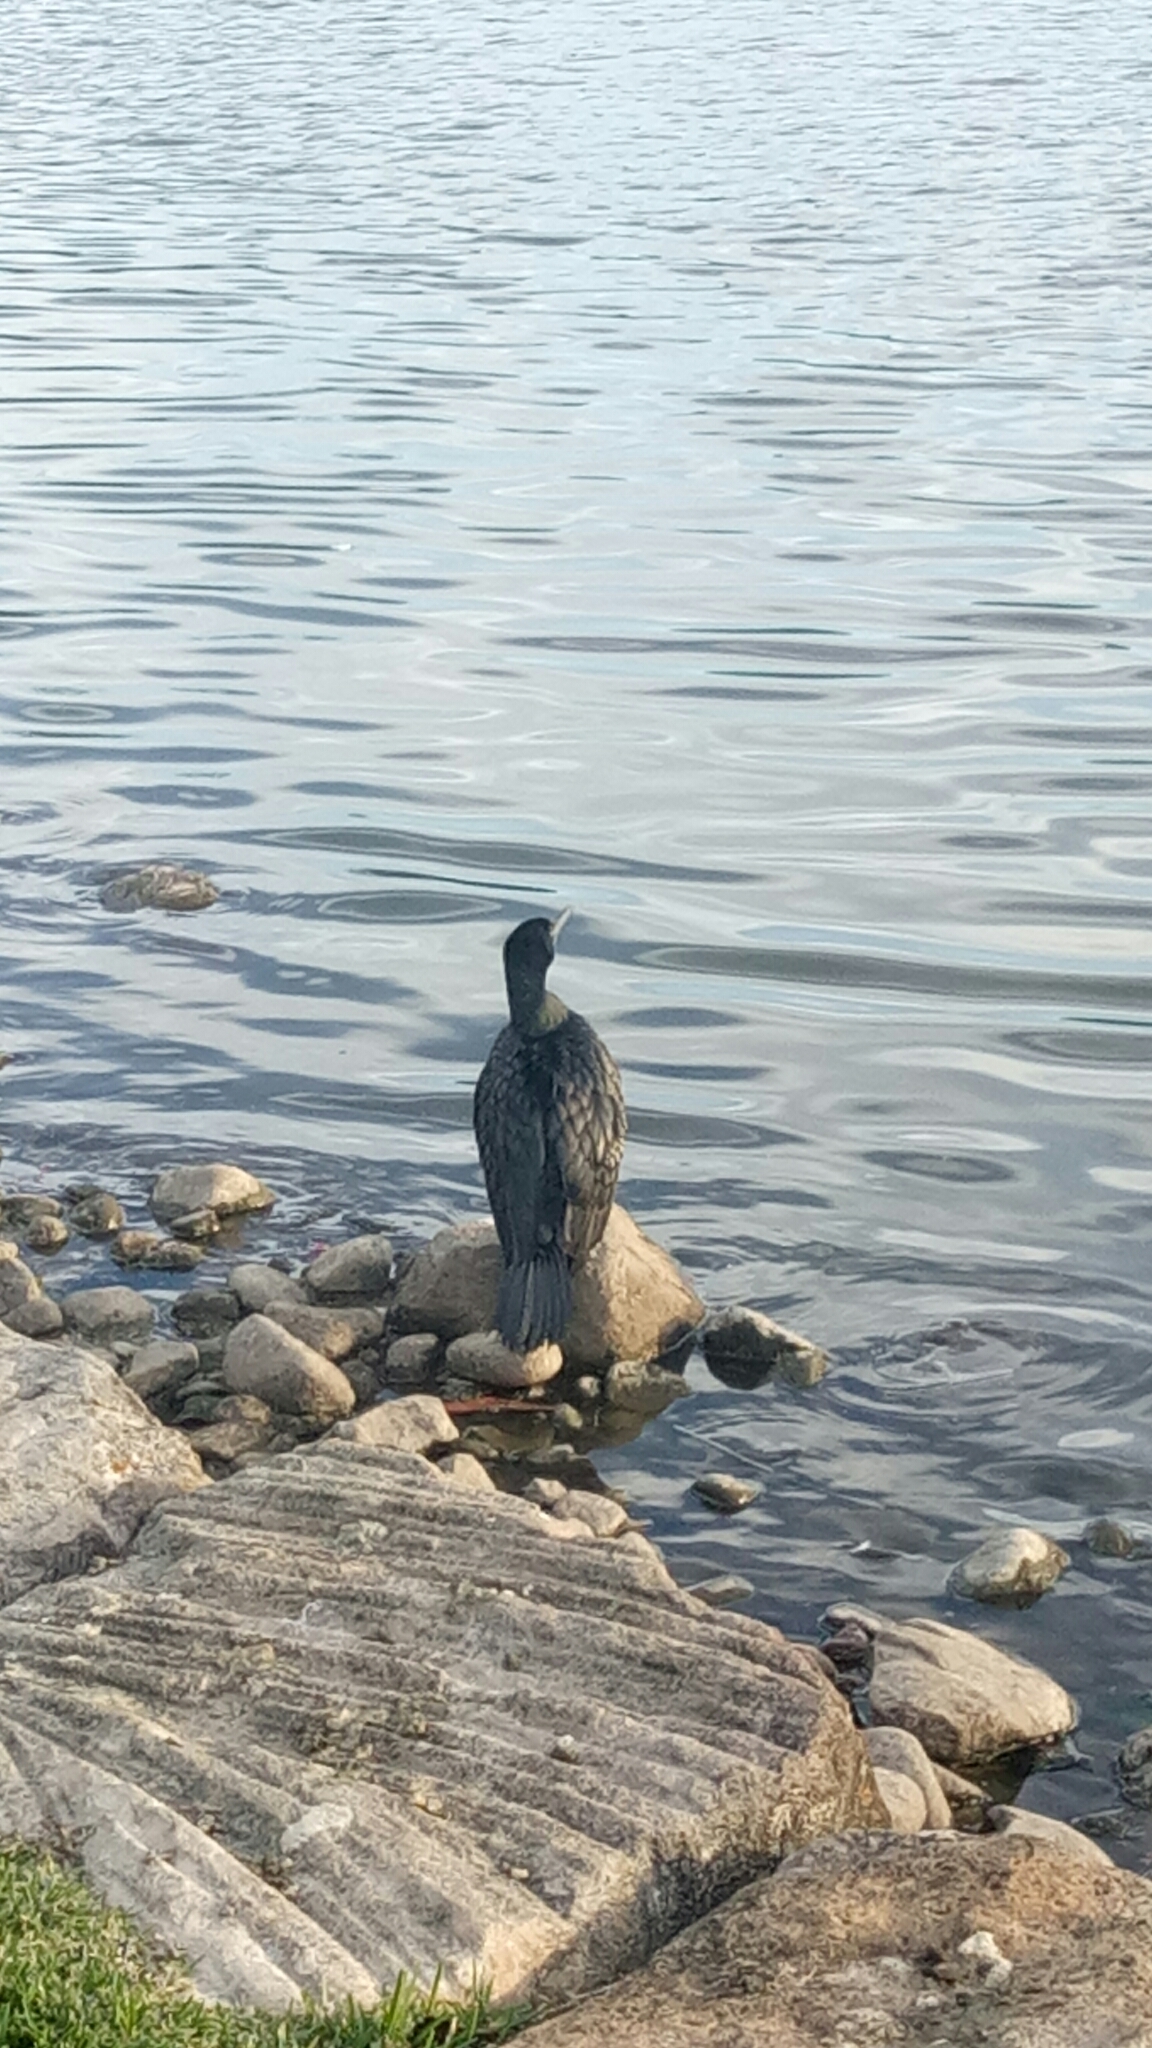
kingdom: Animalia
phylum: Chordata
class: Aves
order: Suliformes
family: Phalacrocoracidae
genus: Phalacrocorax
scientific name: Phalacrocorax sulcirostris
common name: Little black cormorant
